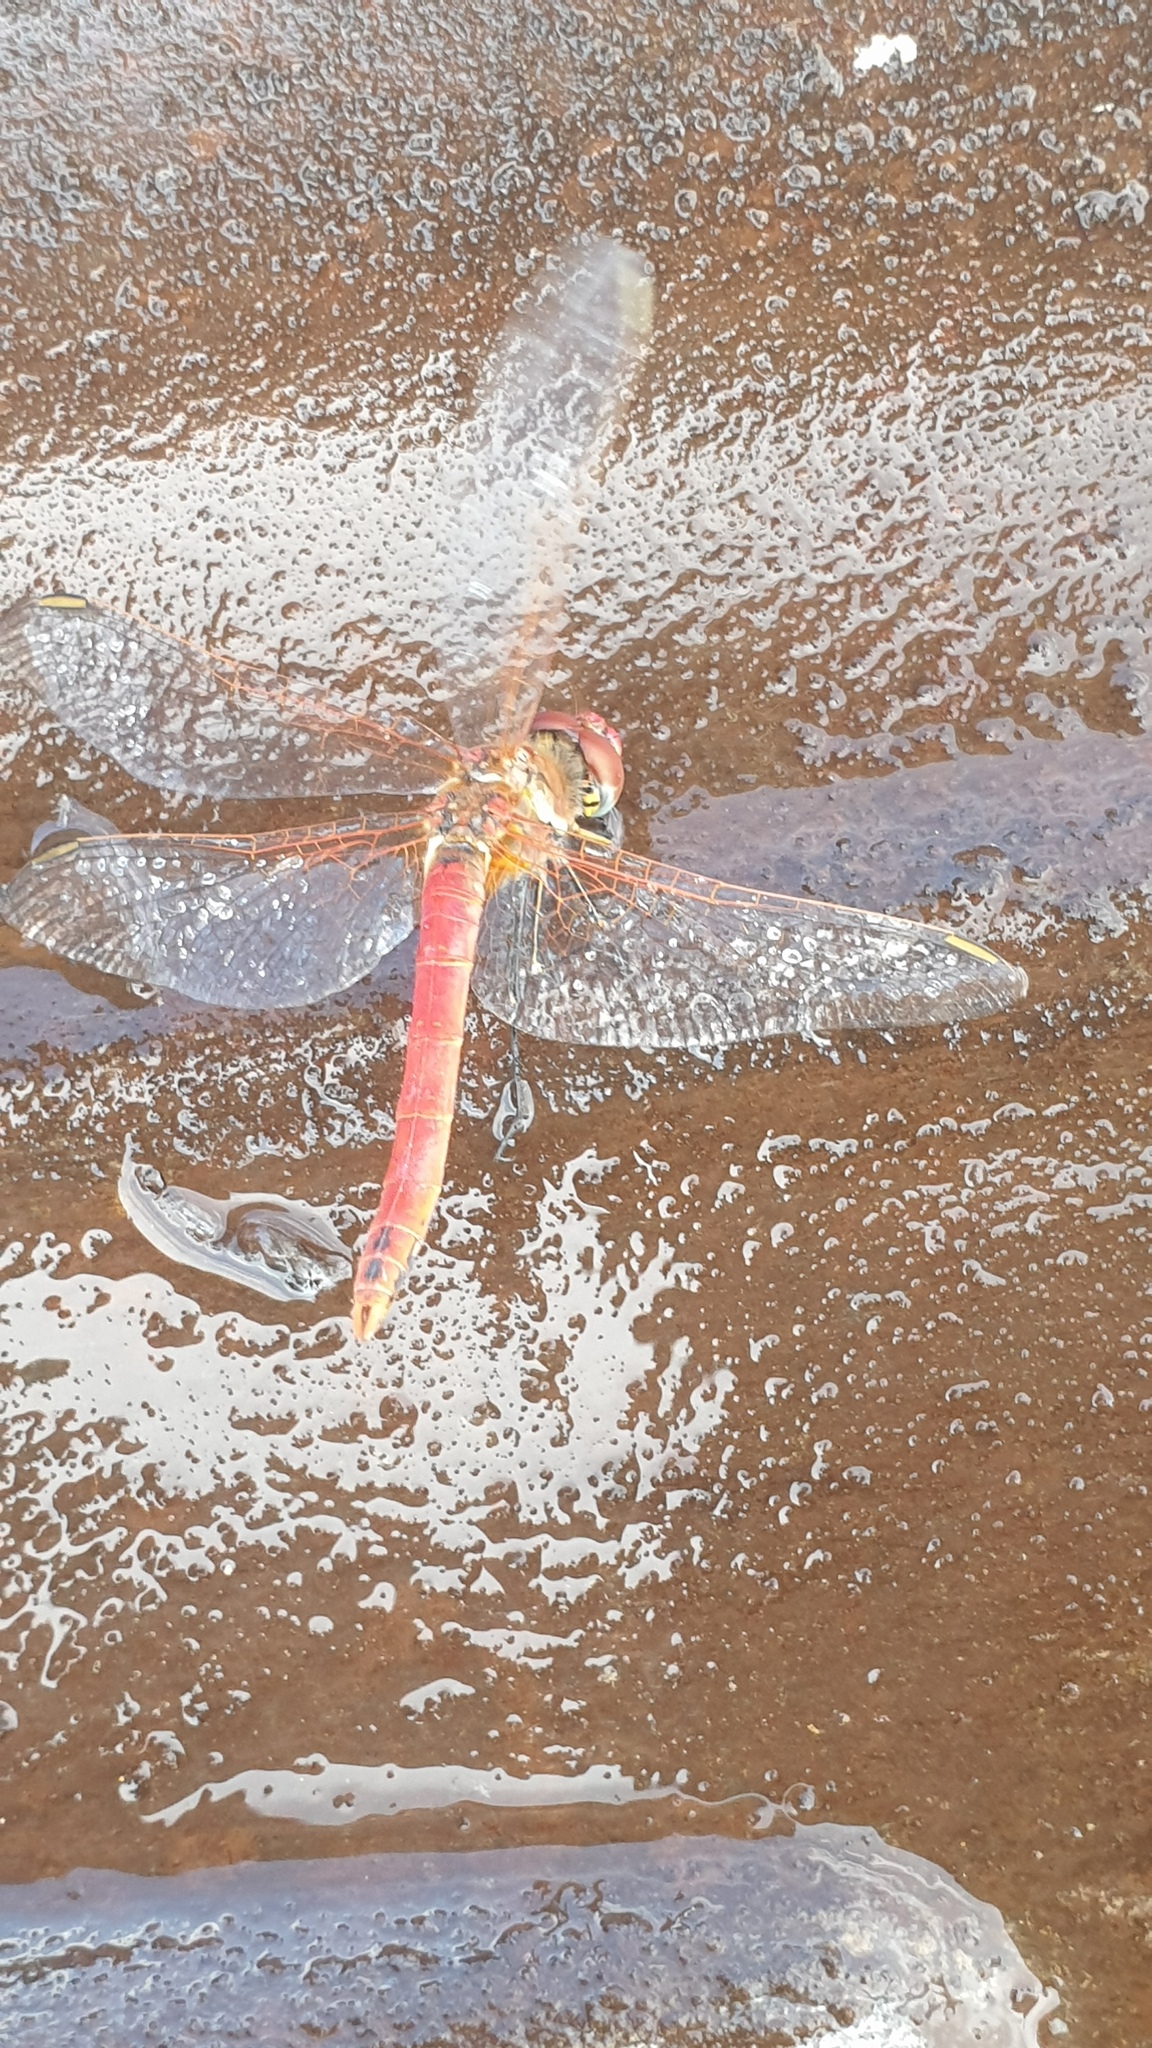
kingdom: Animalia
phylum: Arthropoda
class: Insecta
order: Odonata
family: Libellulidae
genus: Sympetrum
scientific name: Sympetrum fonscolombii
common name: Red-veined darter
